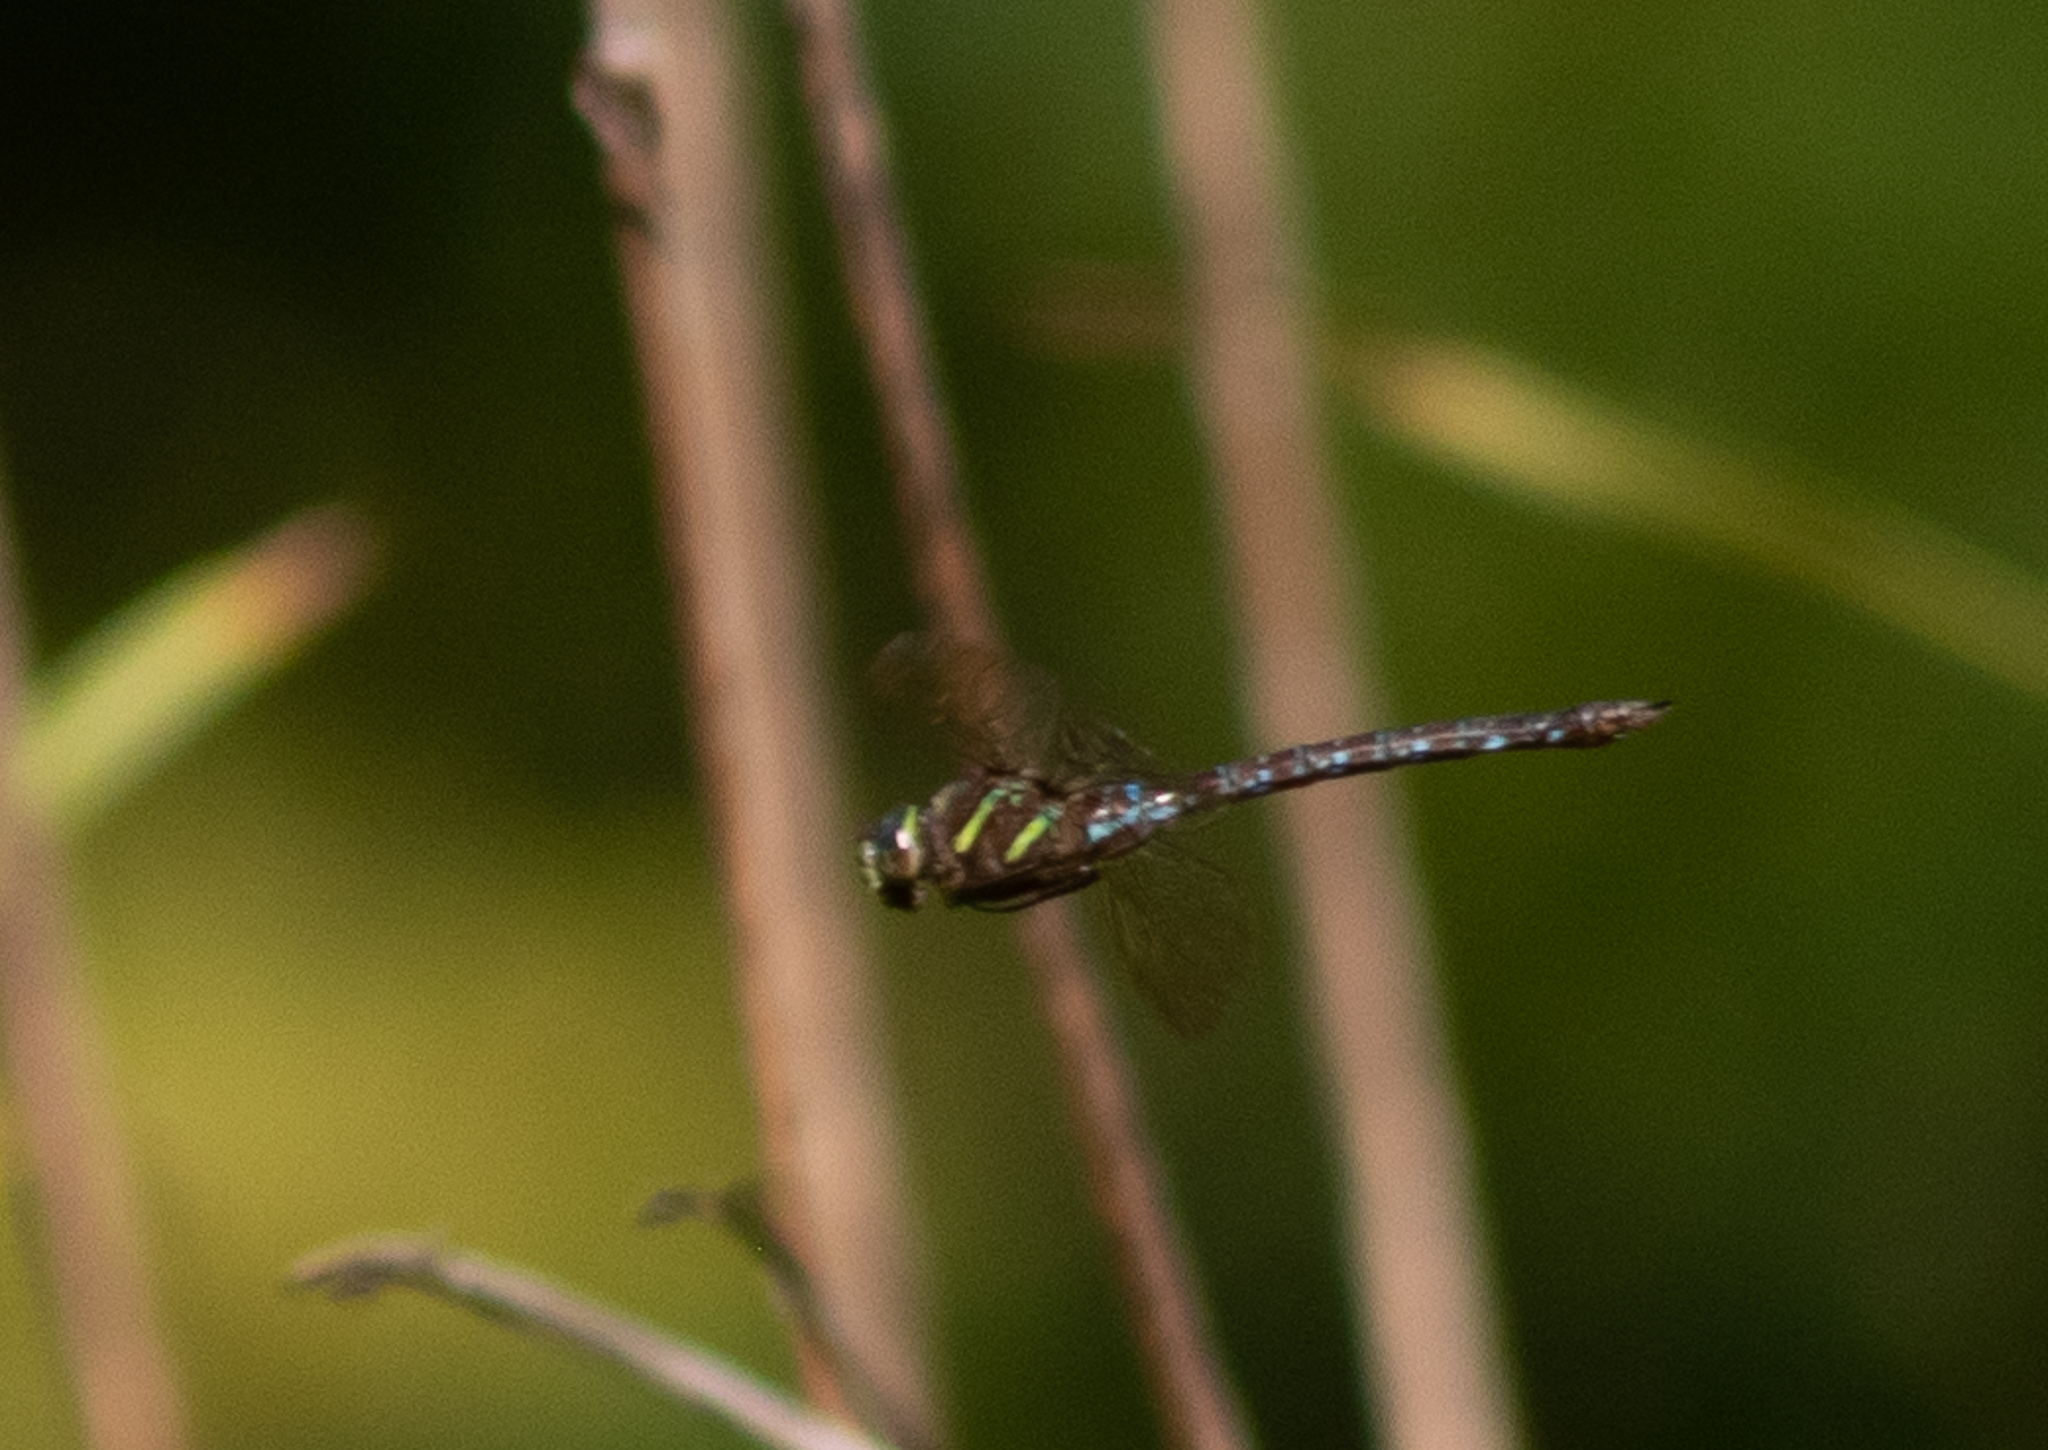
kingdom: Animalia
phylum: Arthropoda
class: Insecta
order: Odonata
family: Aeshnidae
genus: Aeshna
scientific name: Aeshna umbrosa
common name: Shadow darner
